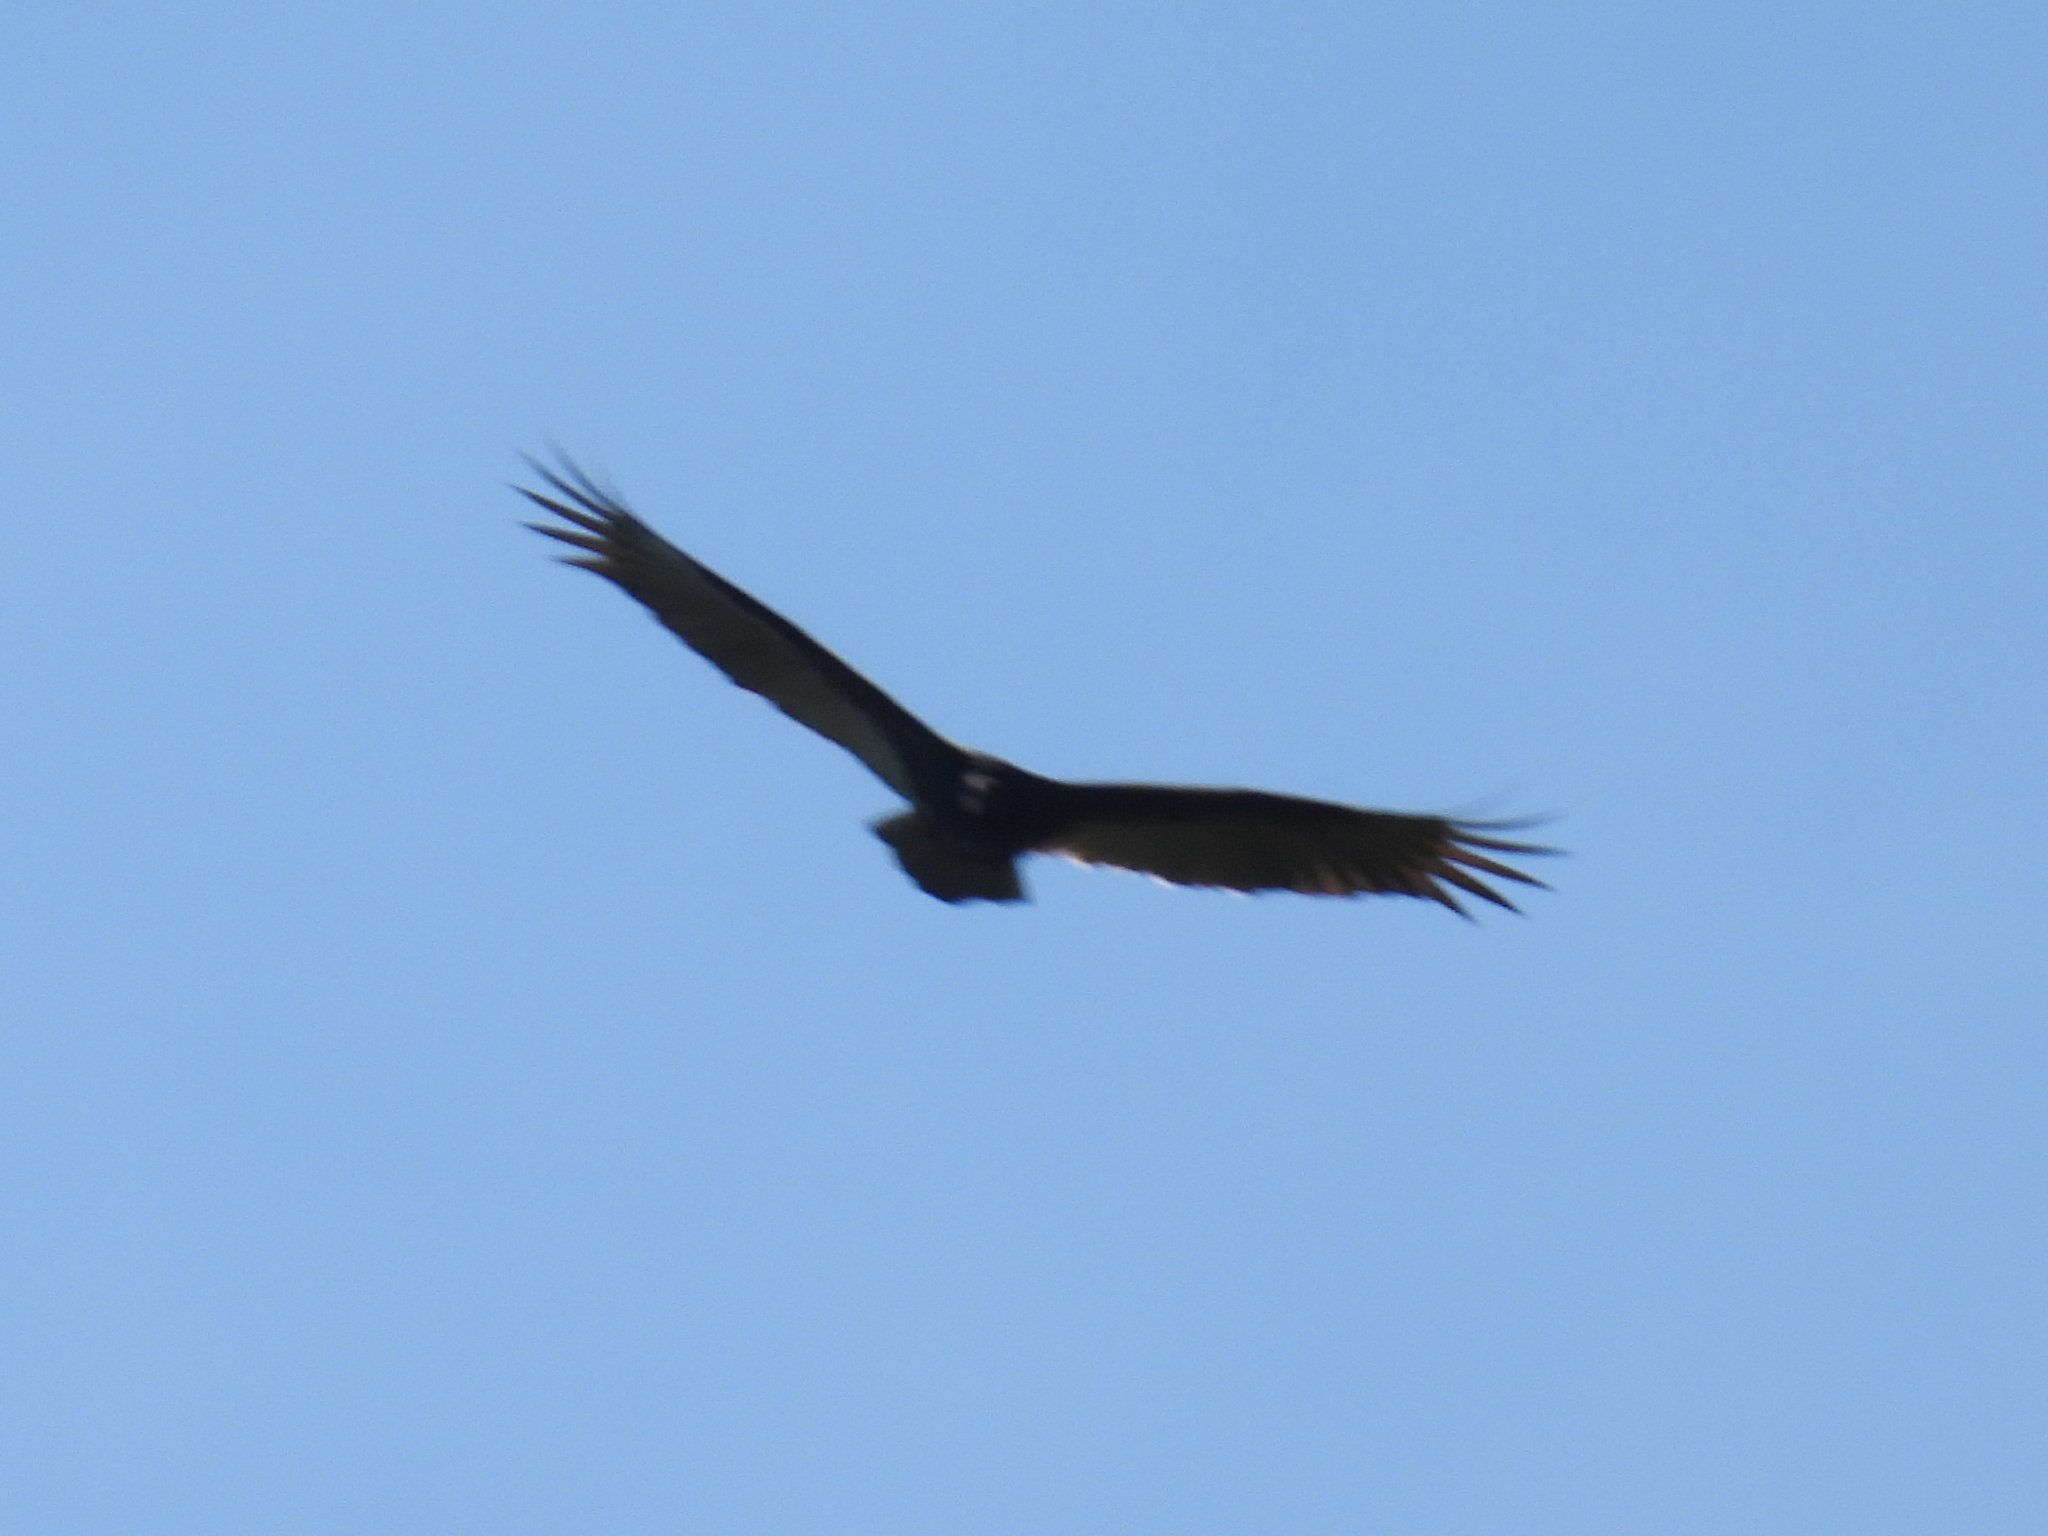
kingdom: Animalia
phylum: Chordata
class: Aves
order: Accipitriformes
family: Cathartidae
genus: Cathartes
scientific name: Cathartes aura
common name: Turkey vulture
